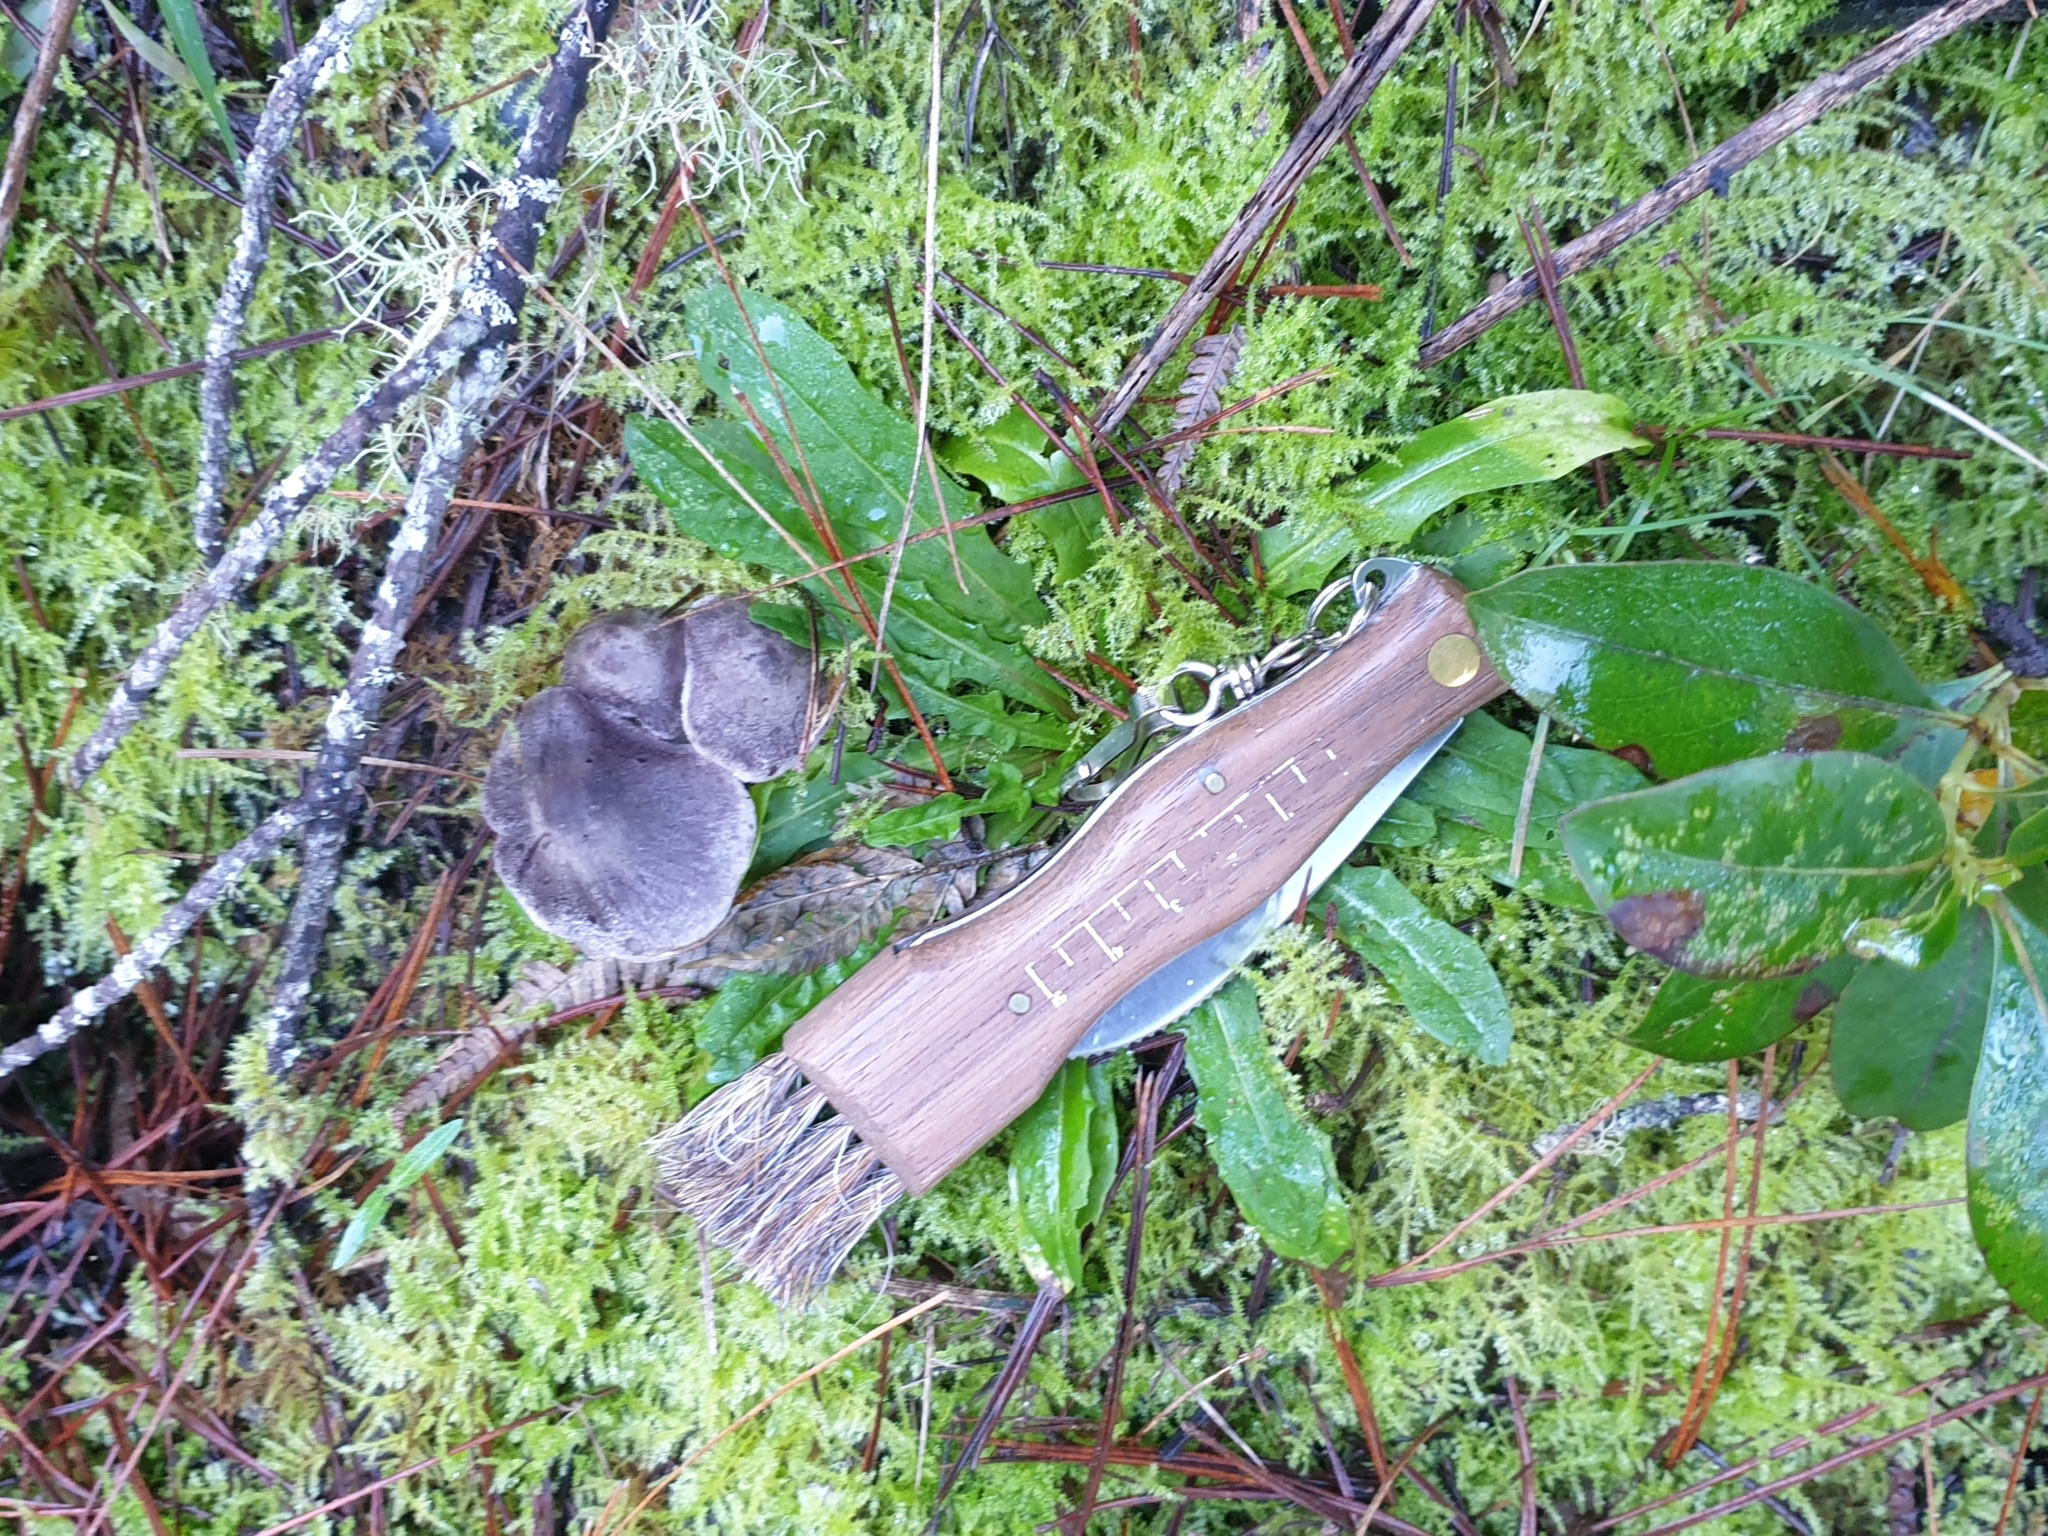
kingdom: Fungi
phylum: Basidiomycota
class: Agaricomycetes
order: Agaricales
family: Tricholomataceae
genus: Tricholoma
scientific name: Tricholoma terreum
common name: Grey knight
